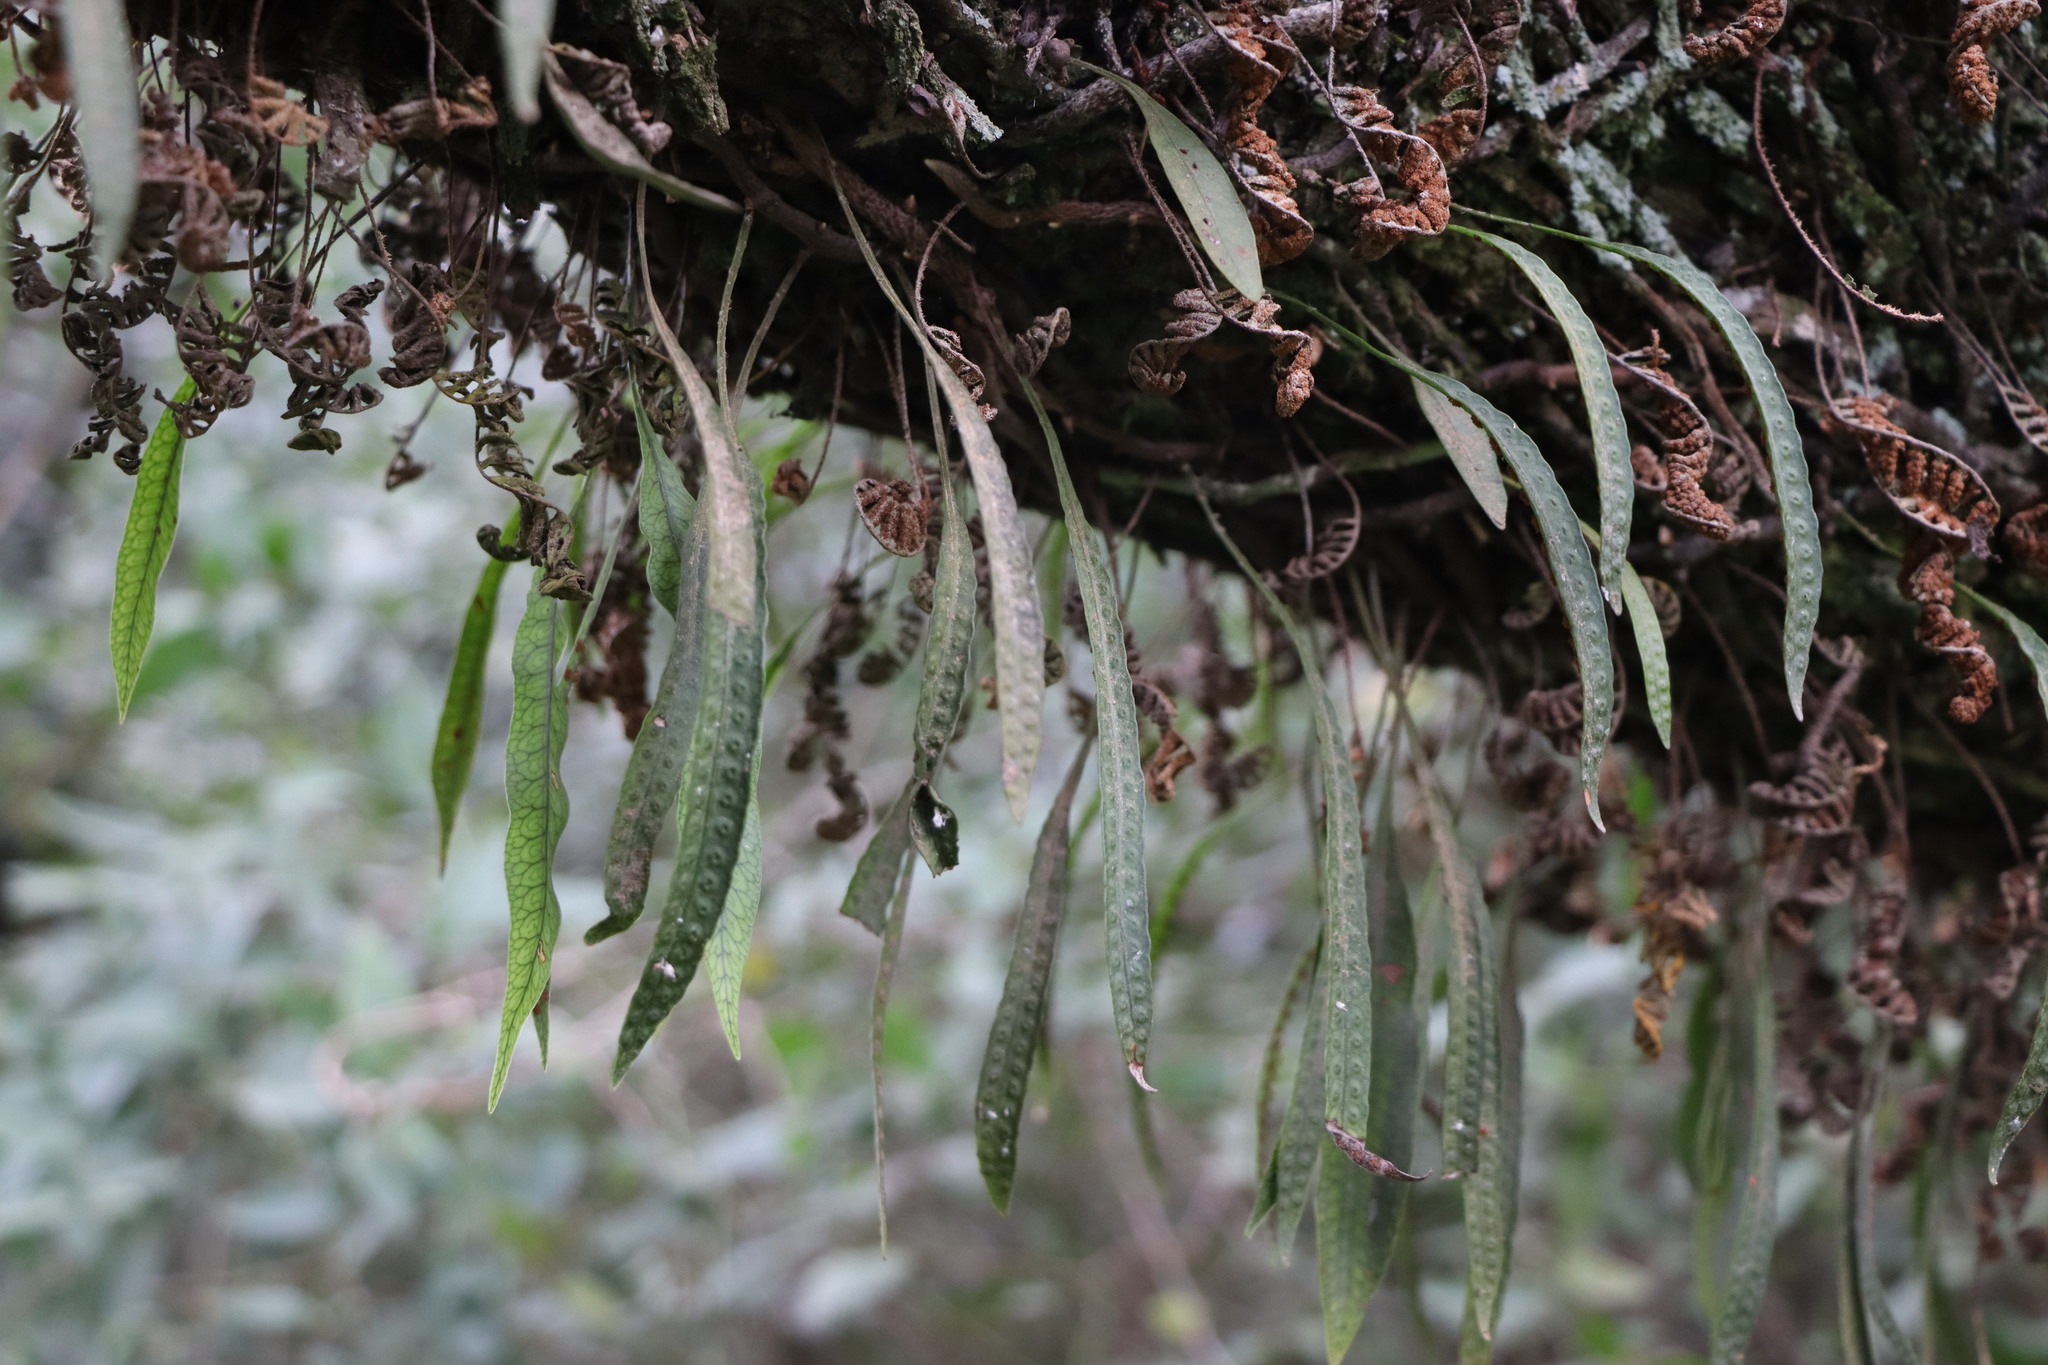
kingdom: Plantae
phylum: Tracheophyta
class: Polypodiopsida
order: Polypodiales
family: Polypodiaceae
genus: Microgramma
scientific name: Microgramma squamulosa
